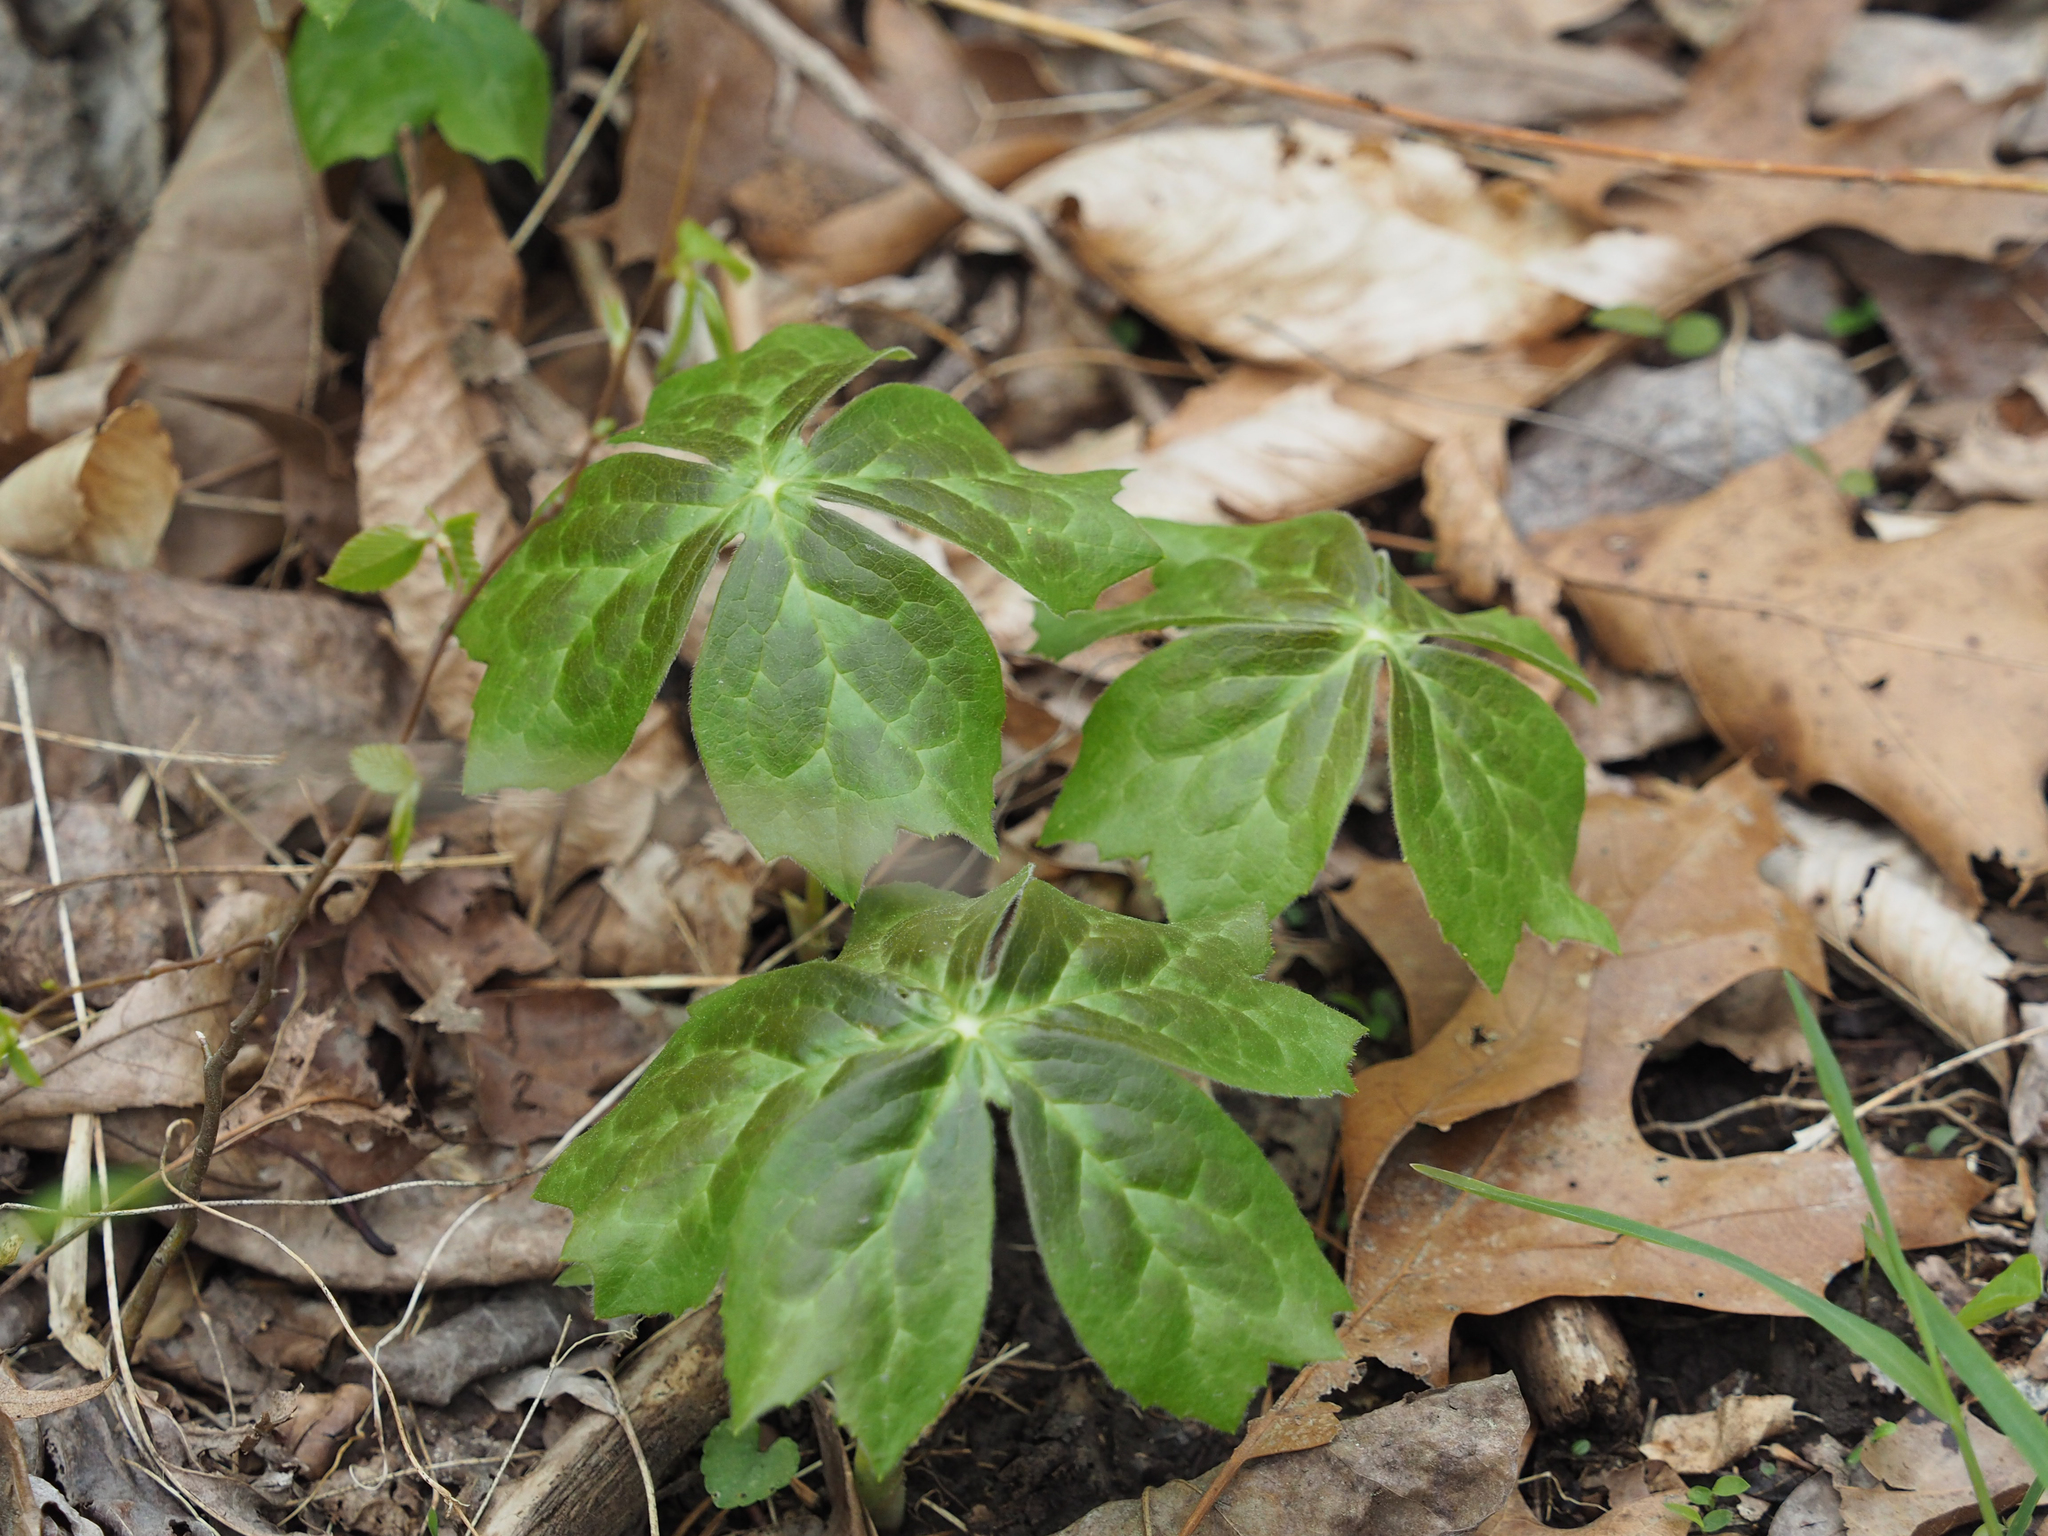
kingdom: Plantae
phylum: Tracheophyta
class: Magnoliopsida
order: Ranunculales
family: Berberidaceae
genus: Podophyllum
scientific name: Podophyllum peltatum
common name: Wild mandrake
